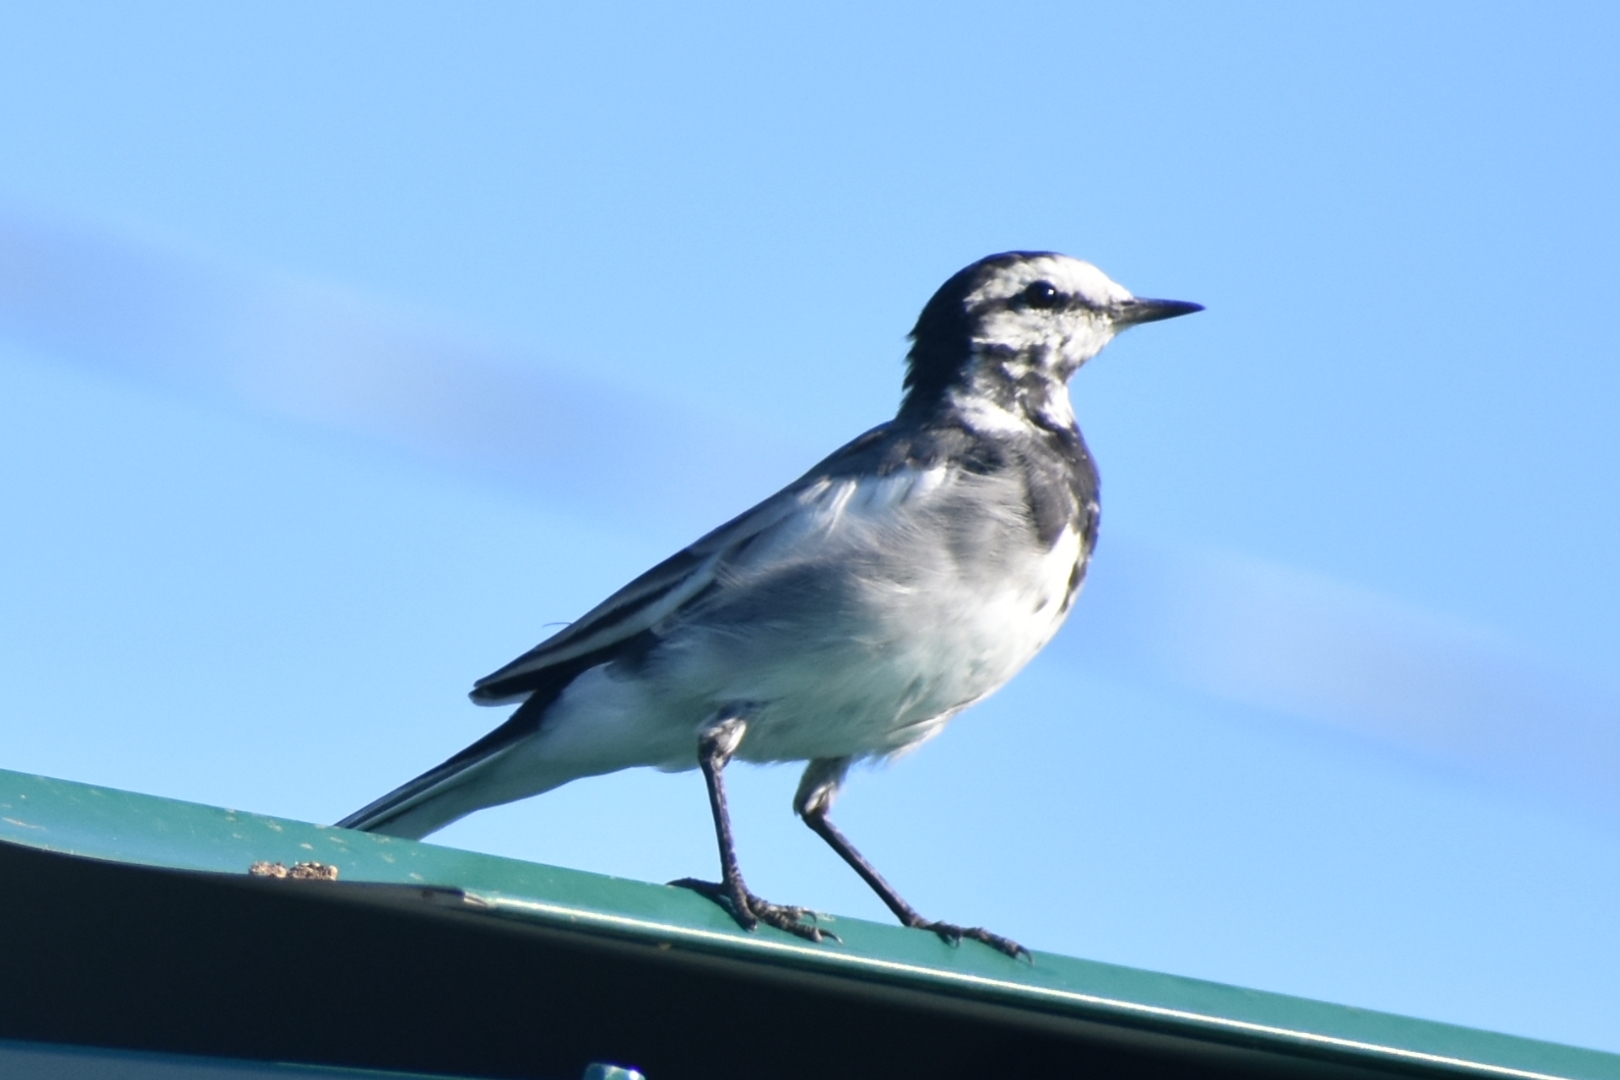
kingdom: Animalia
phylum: Chordata
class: Aves
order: Passeriformes
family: Motacillidae
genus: Motacilla
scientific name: Motacilla alba
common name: White wagtail
